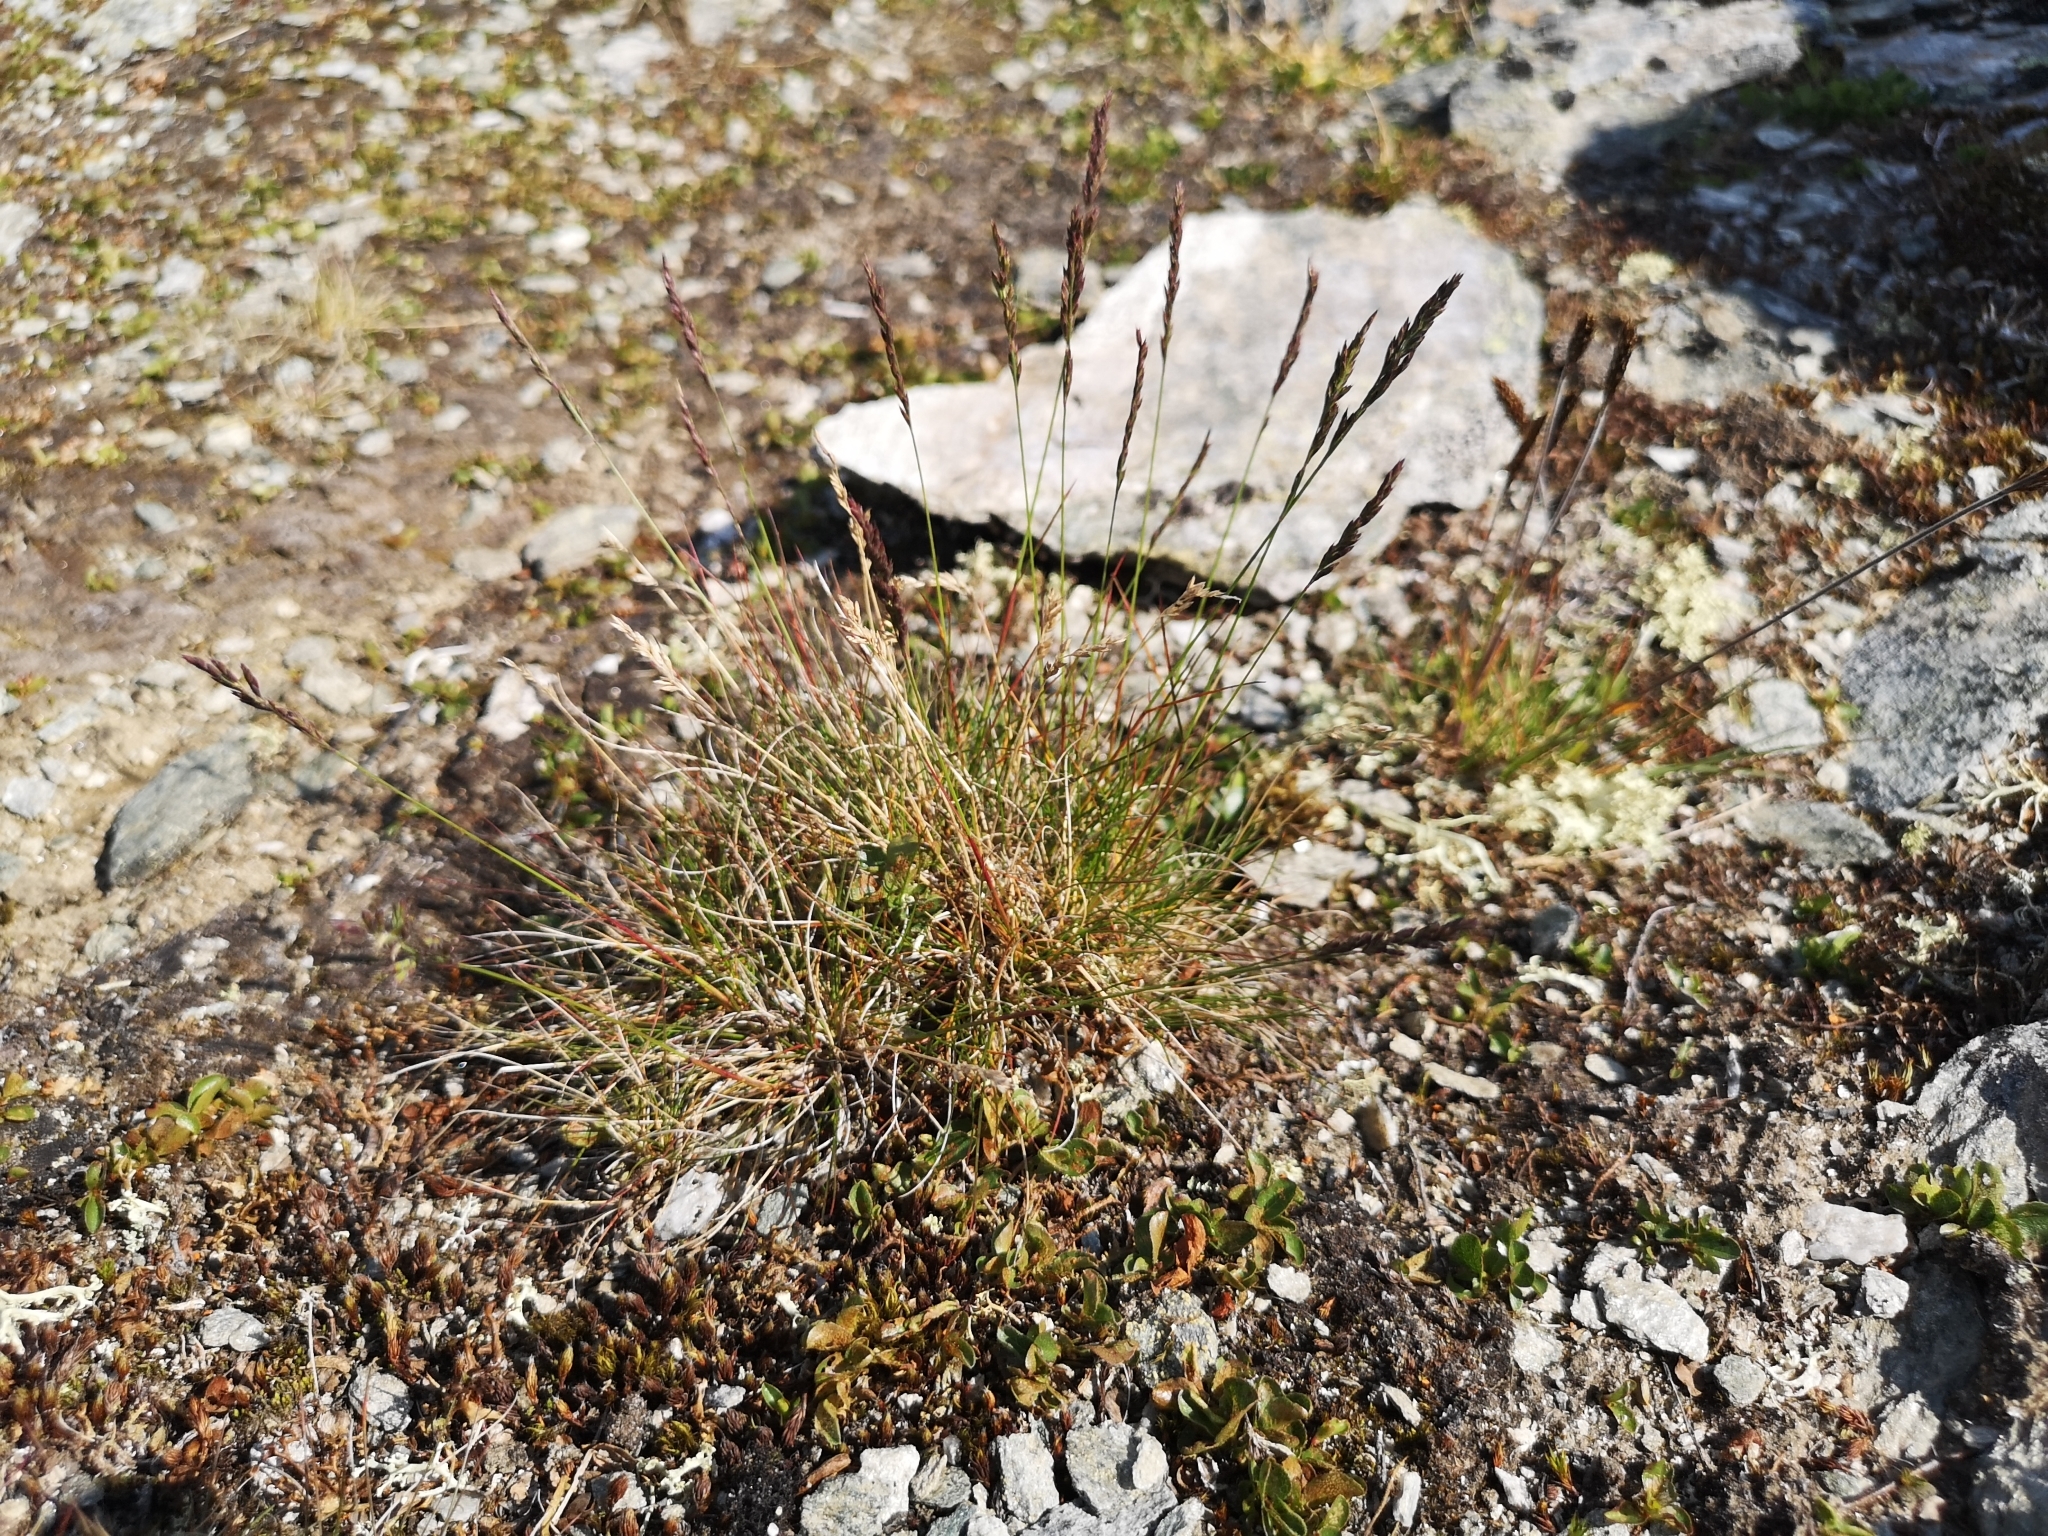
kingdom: Plantae
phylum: Tracheophyta
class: Liliopsida
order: Poales
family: Poaceae
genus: Festuca
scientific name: Festuca ovina
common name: Sheep fescue
